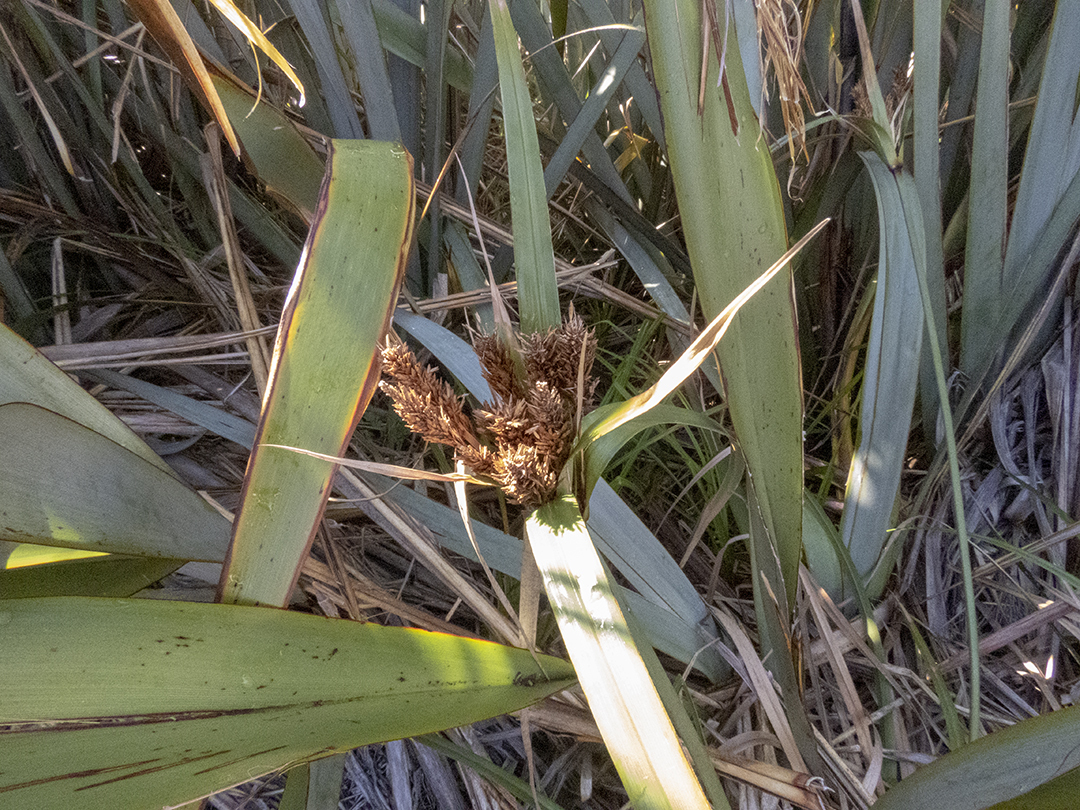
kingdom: Plantae
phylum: Tracheophyta
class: Liliopsida
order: Poales
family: Cyperaceae
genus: Cyperus
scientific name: Cyperus ustulatus
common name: Giant umbrella-sedge
